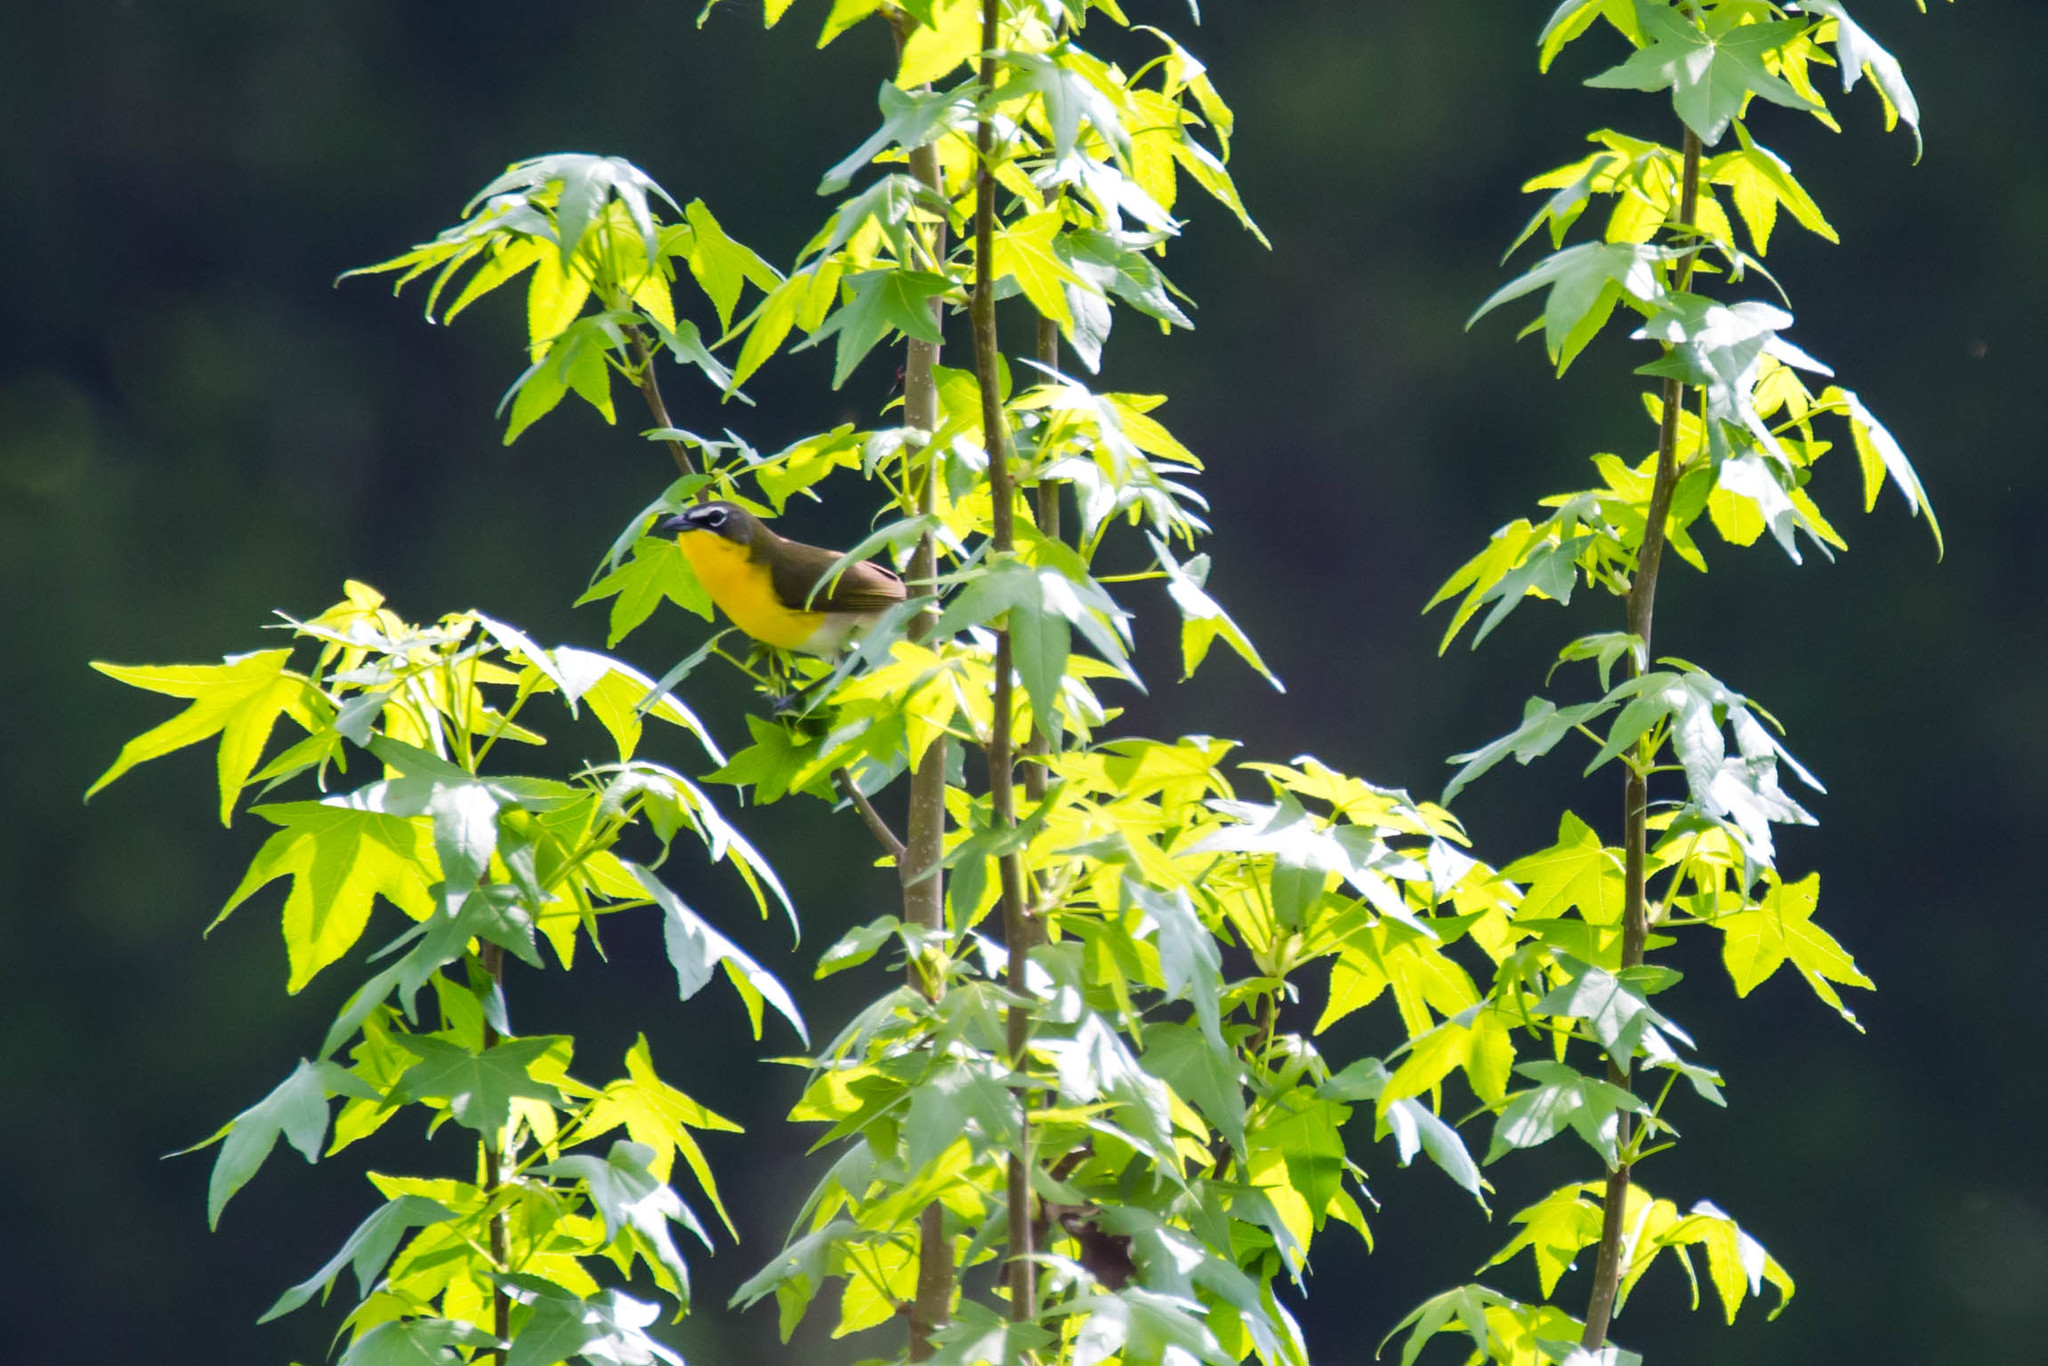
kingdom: Animalia
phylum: Chordata
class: Aves
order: Passeriformes
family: Parulidae
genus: Icteria
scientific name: Icteria virens
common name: Yellow-breasted chat
